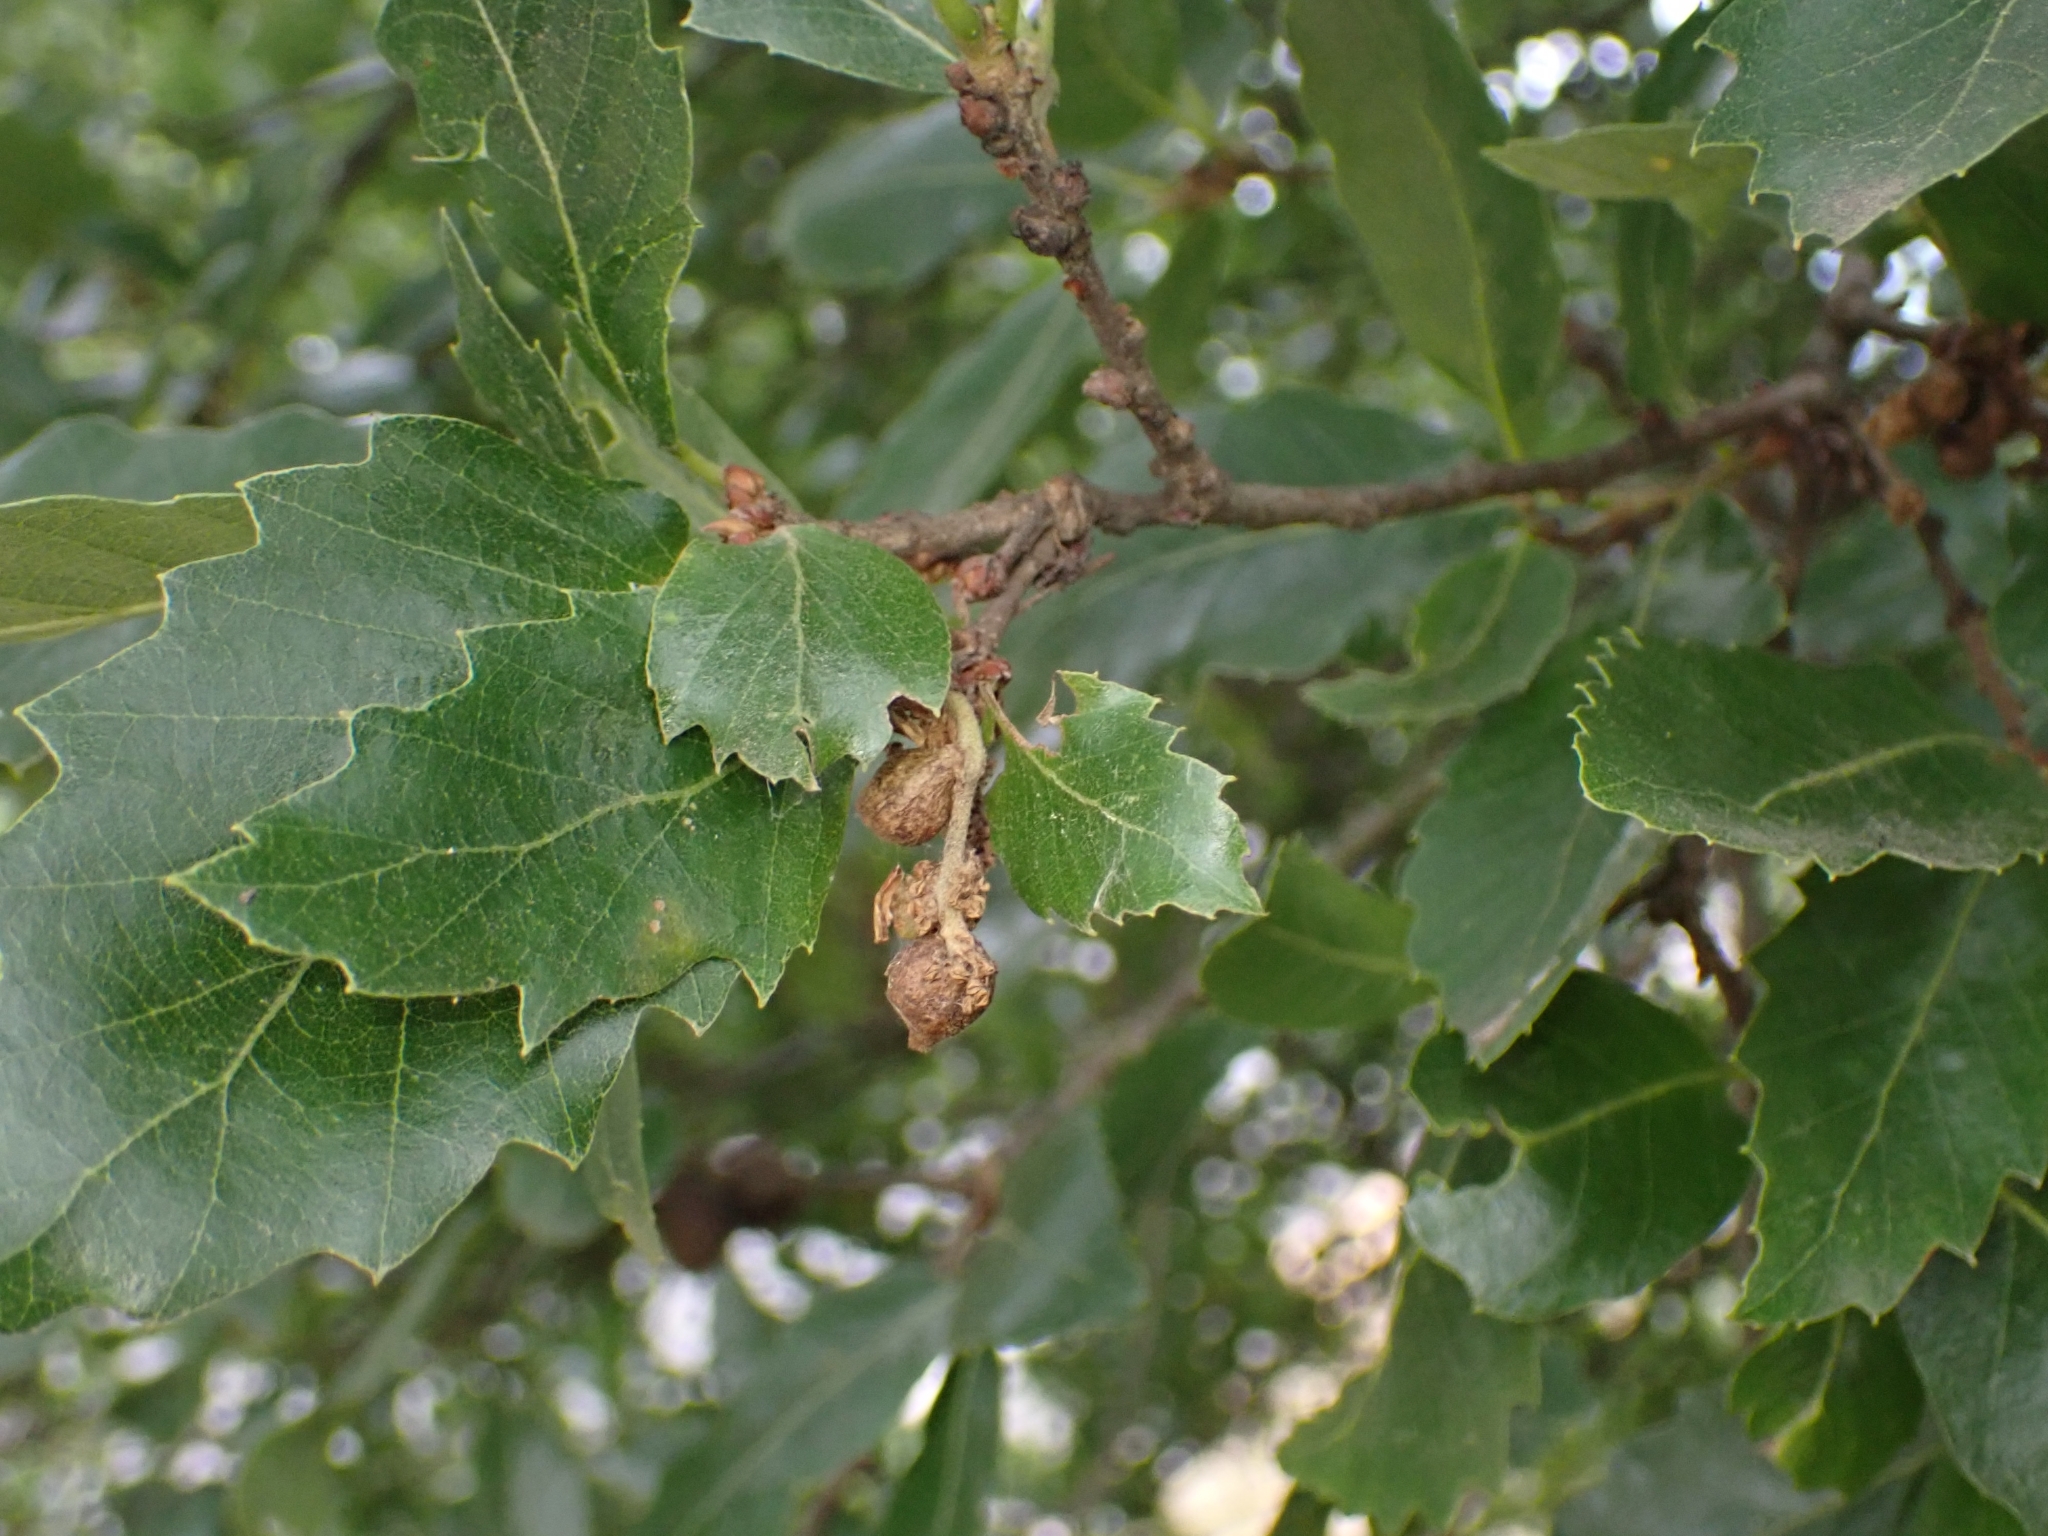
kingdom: Animalia
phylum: Arthropoda
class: Insecta
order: Hymenoptera
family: Cynipidae
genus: Andricus
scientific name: Andricus grossulariae
